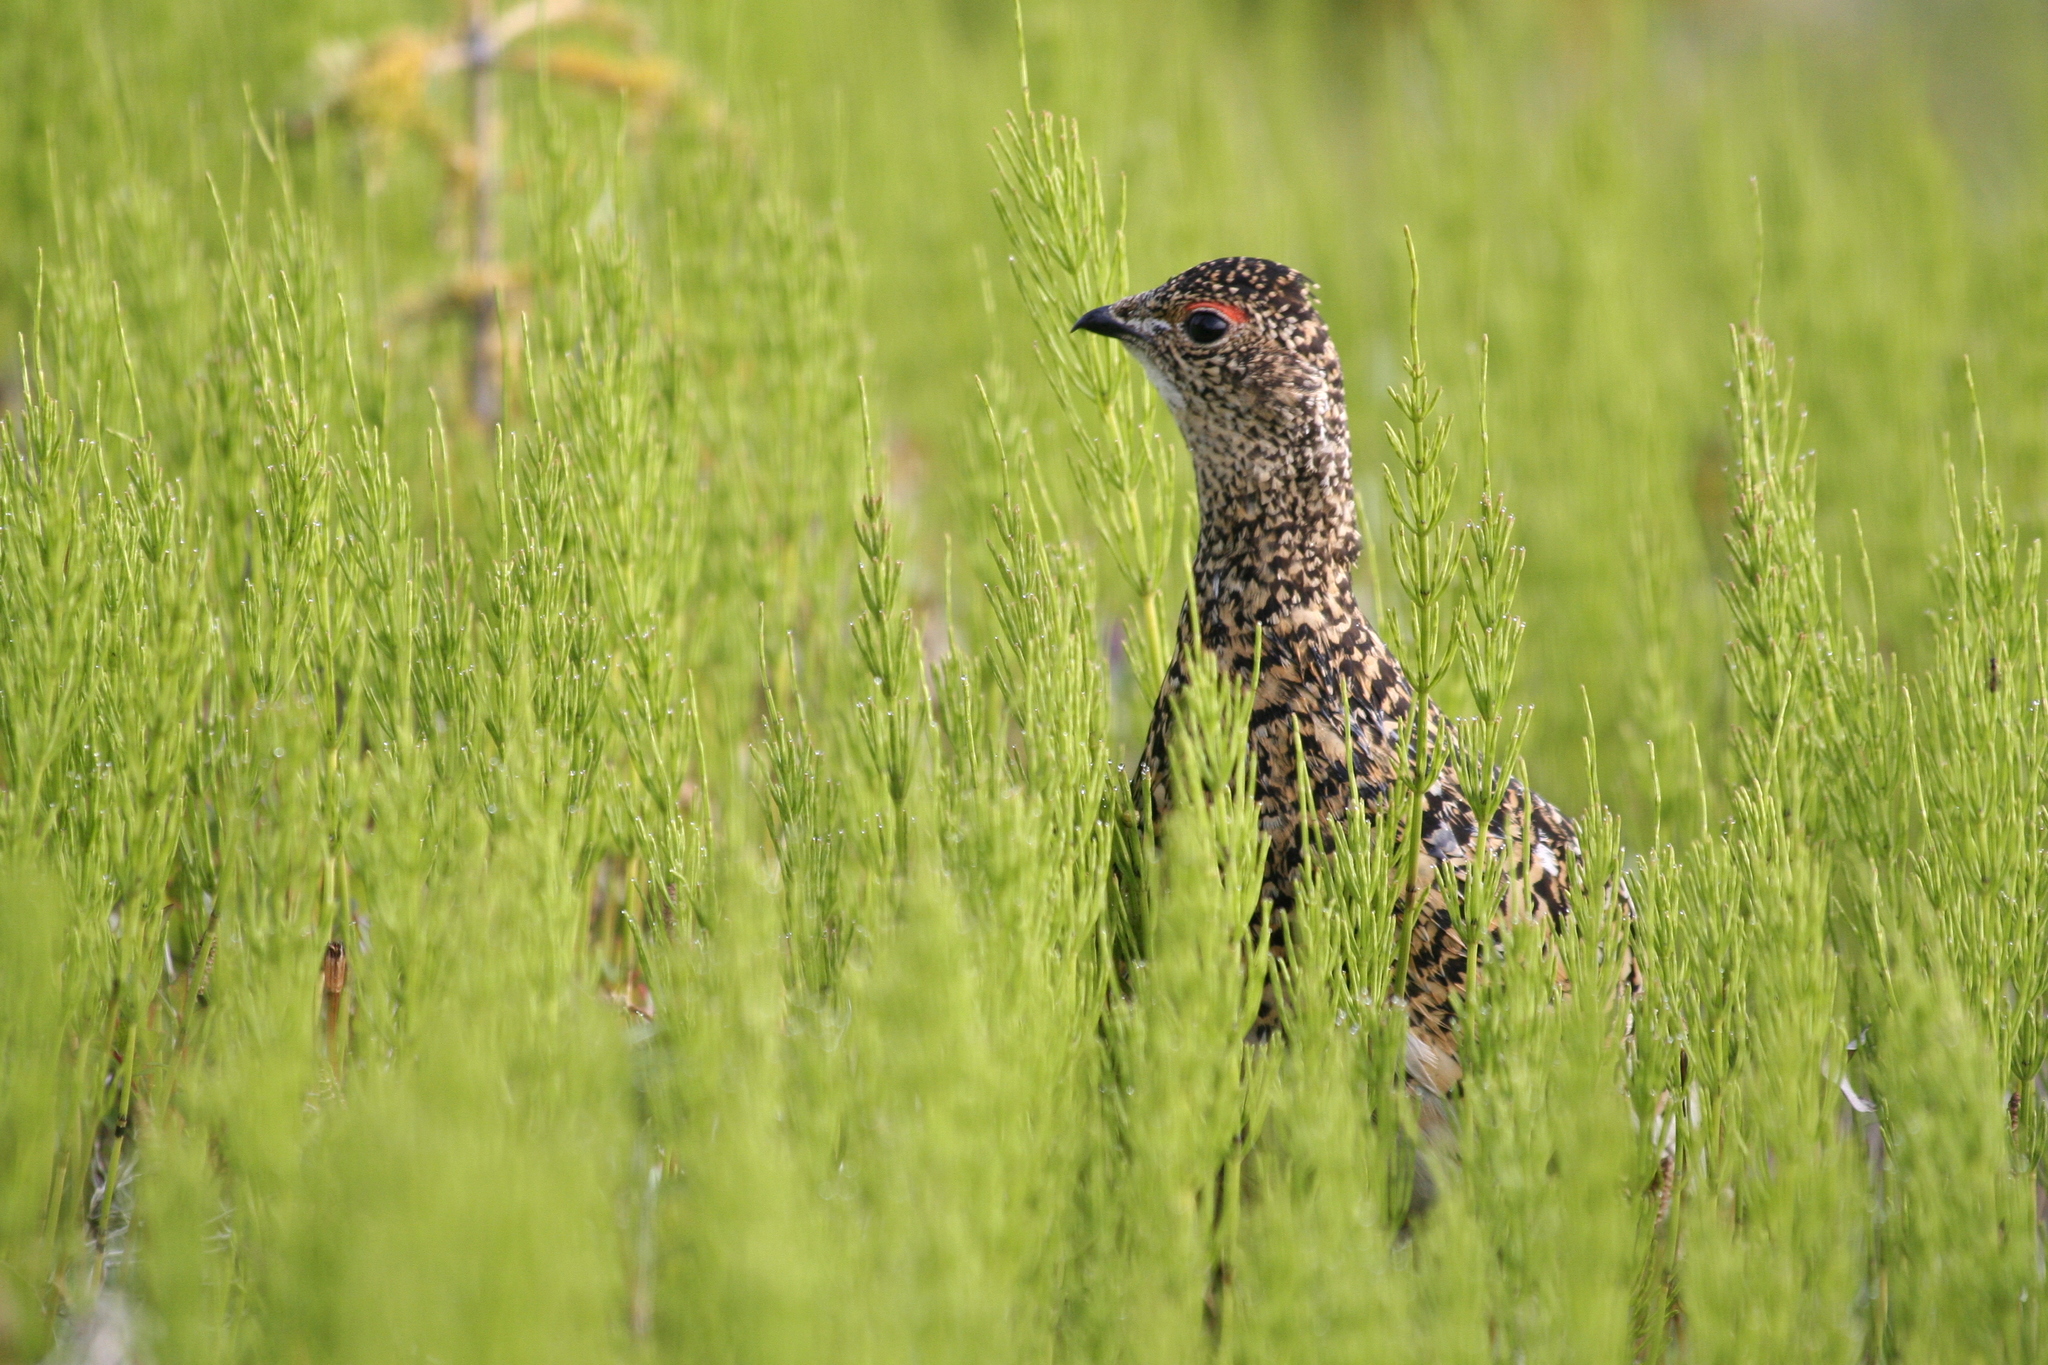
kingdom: Animalia
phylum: Chordata
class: Aves
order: Galliformes
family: Phasianidae
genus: Lagopus
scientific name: Lagopus muta
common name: Rock ptarmigan
